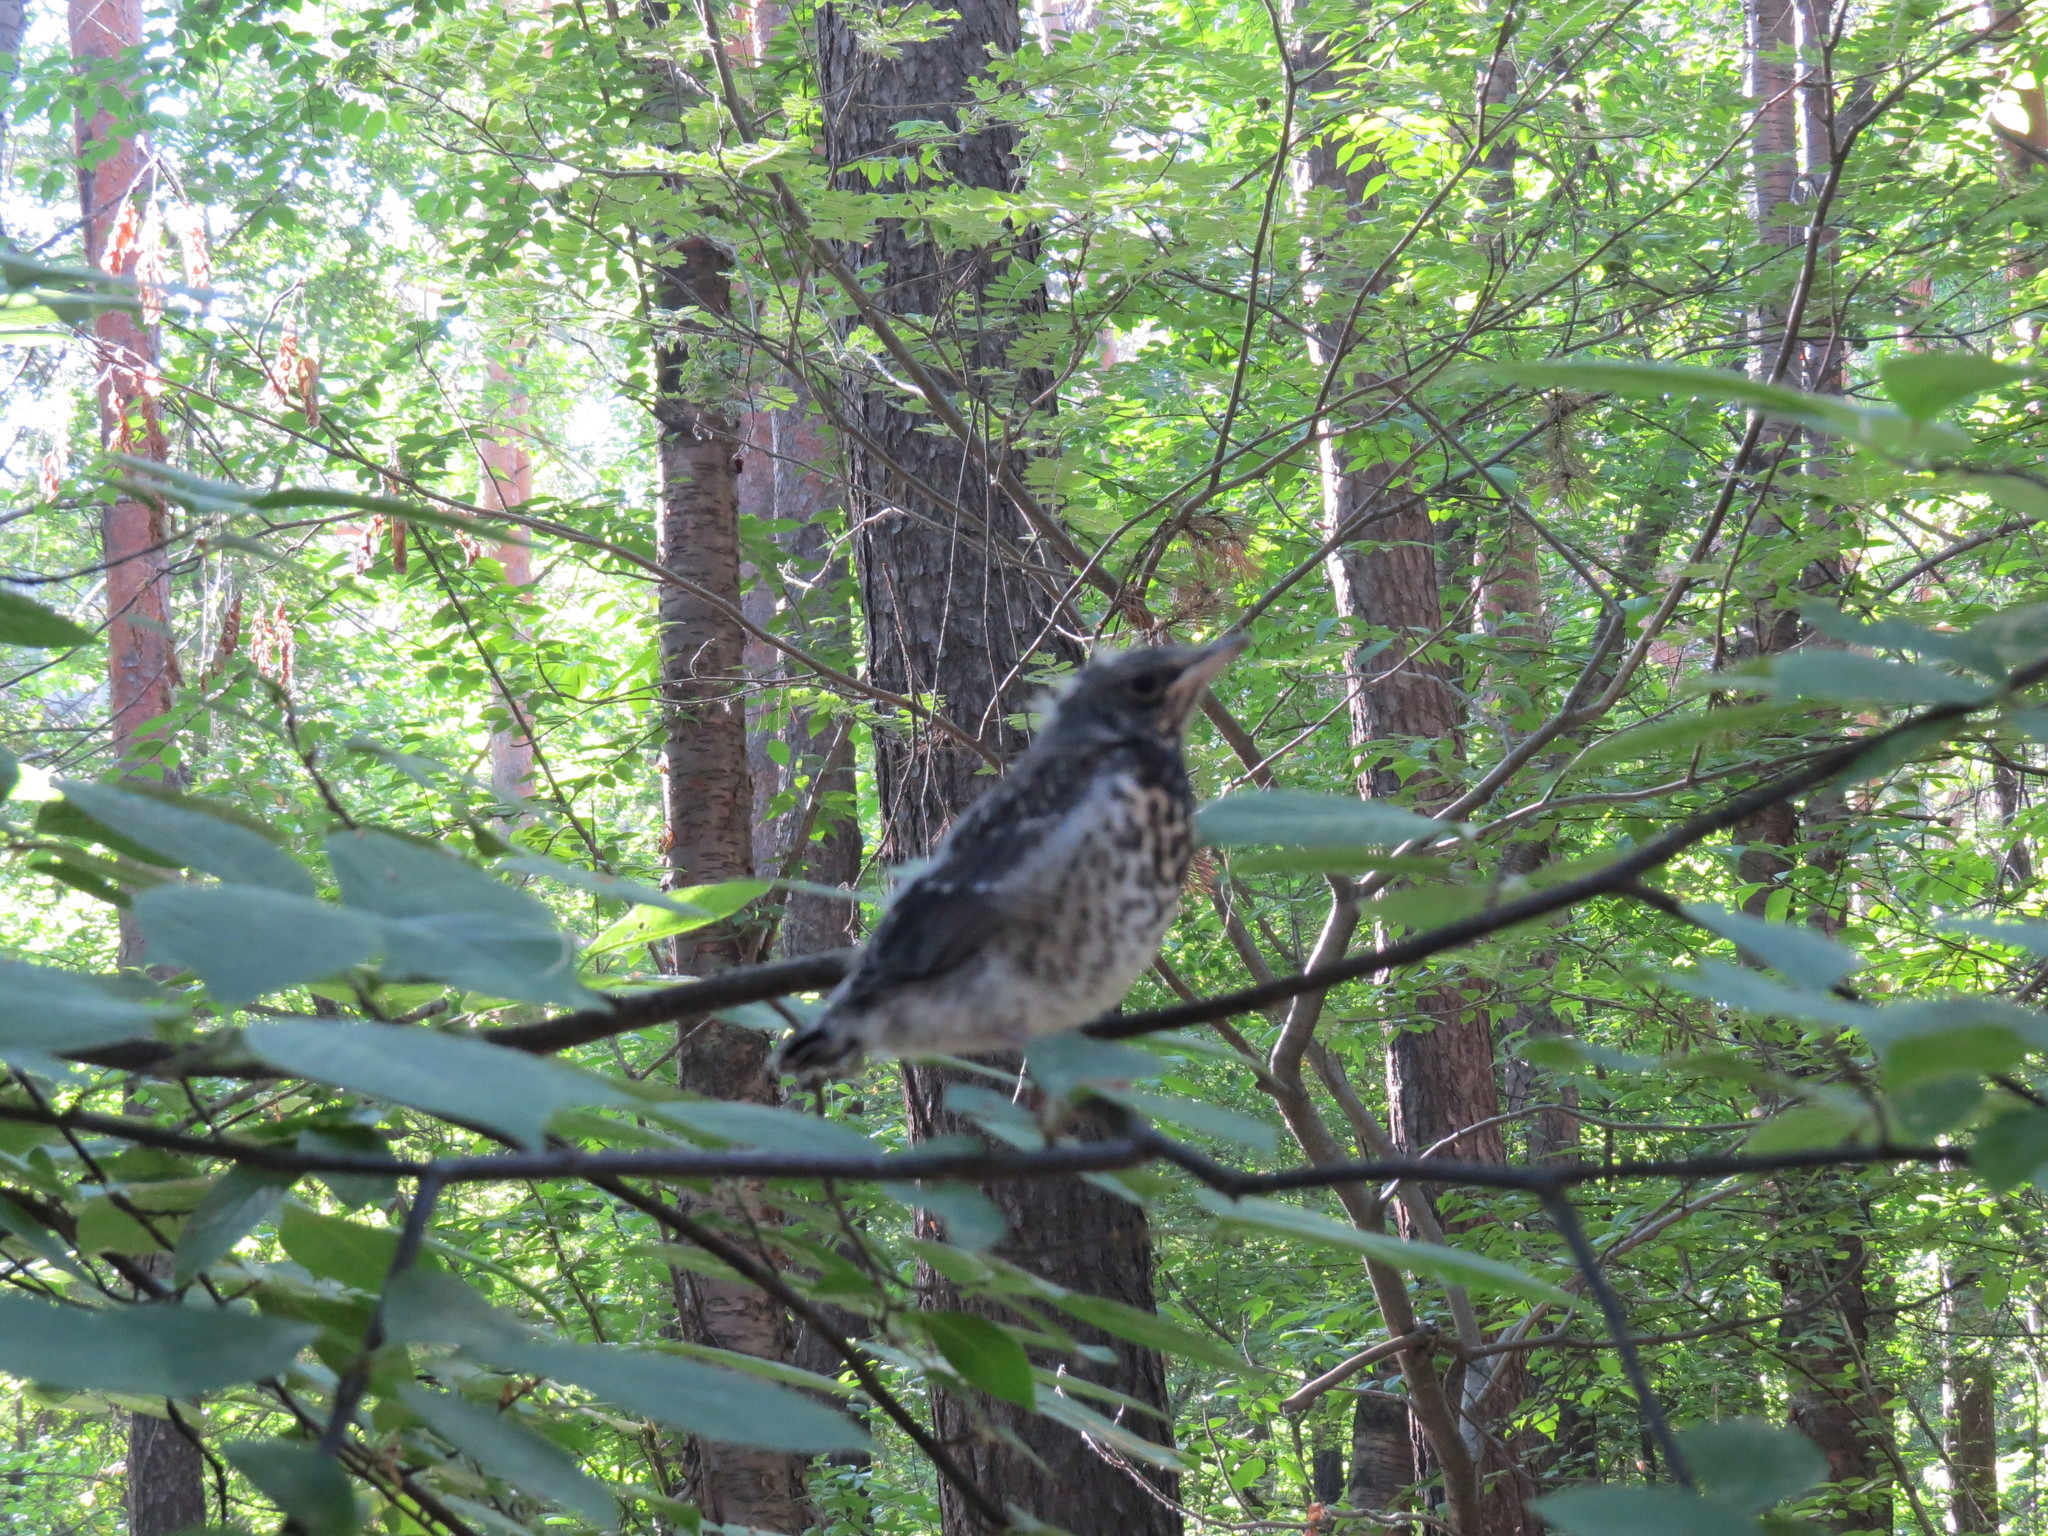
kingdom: Animalia
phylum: Chordata
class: Aves
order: Passeriformes
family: Turdidae
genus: Turdus
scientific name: Turdus pilaris
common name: Fieldfare
